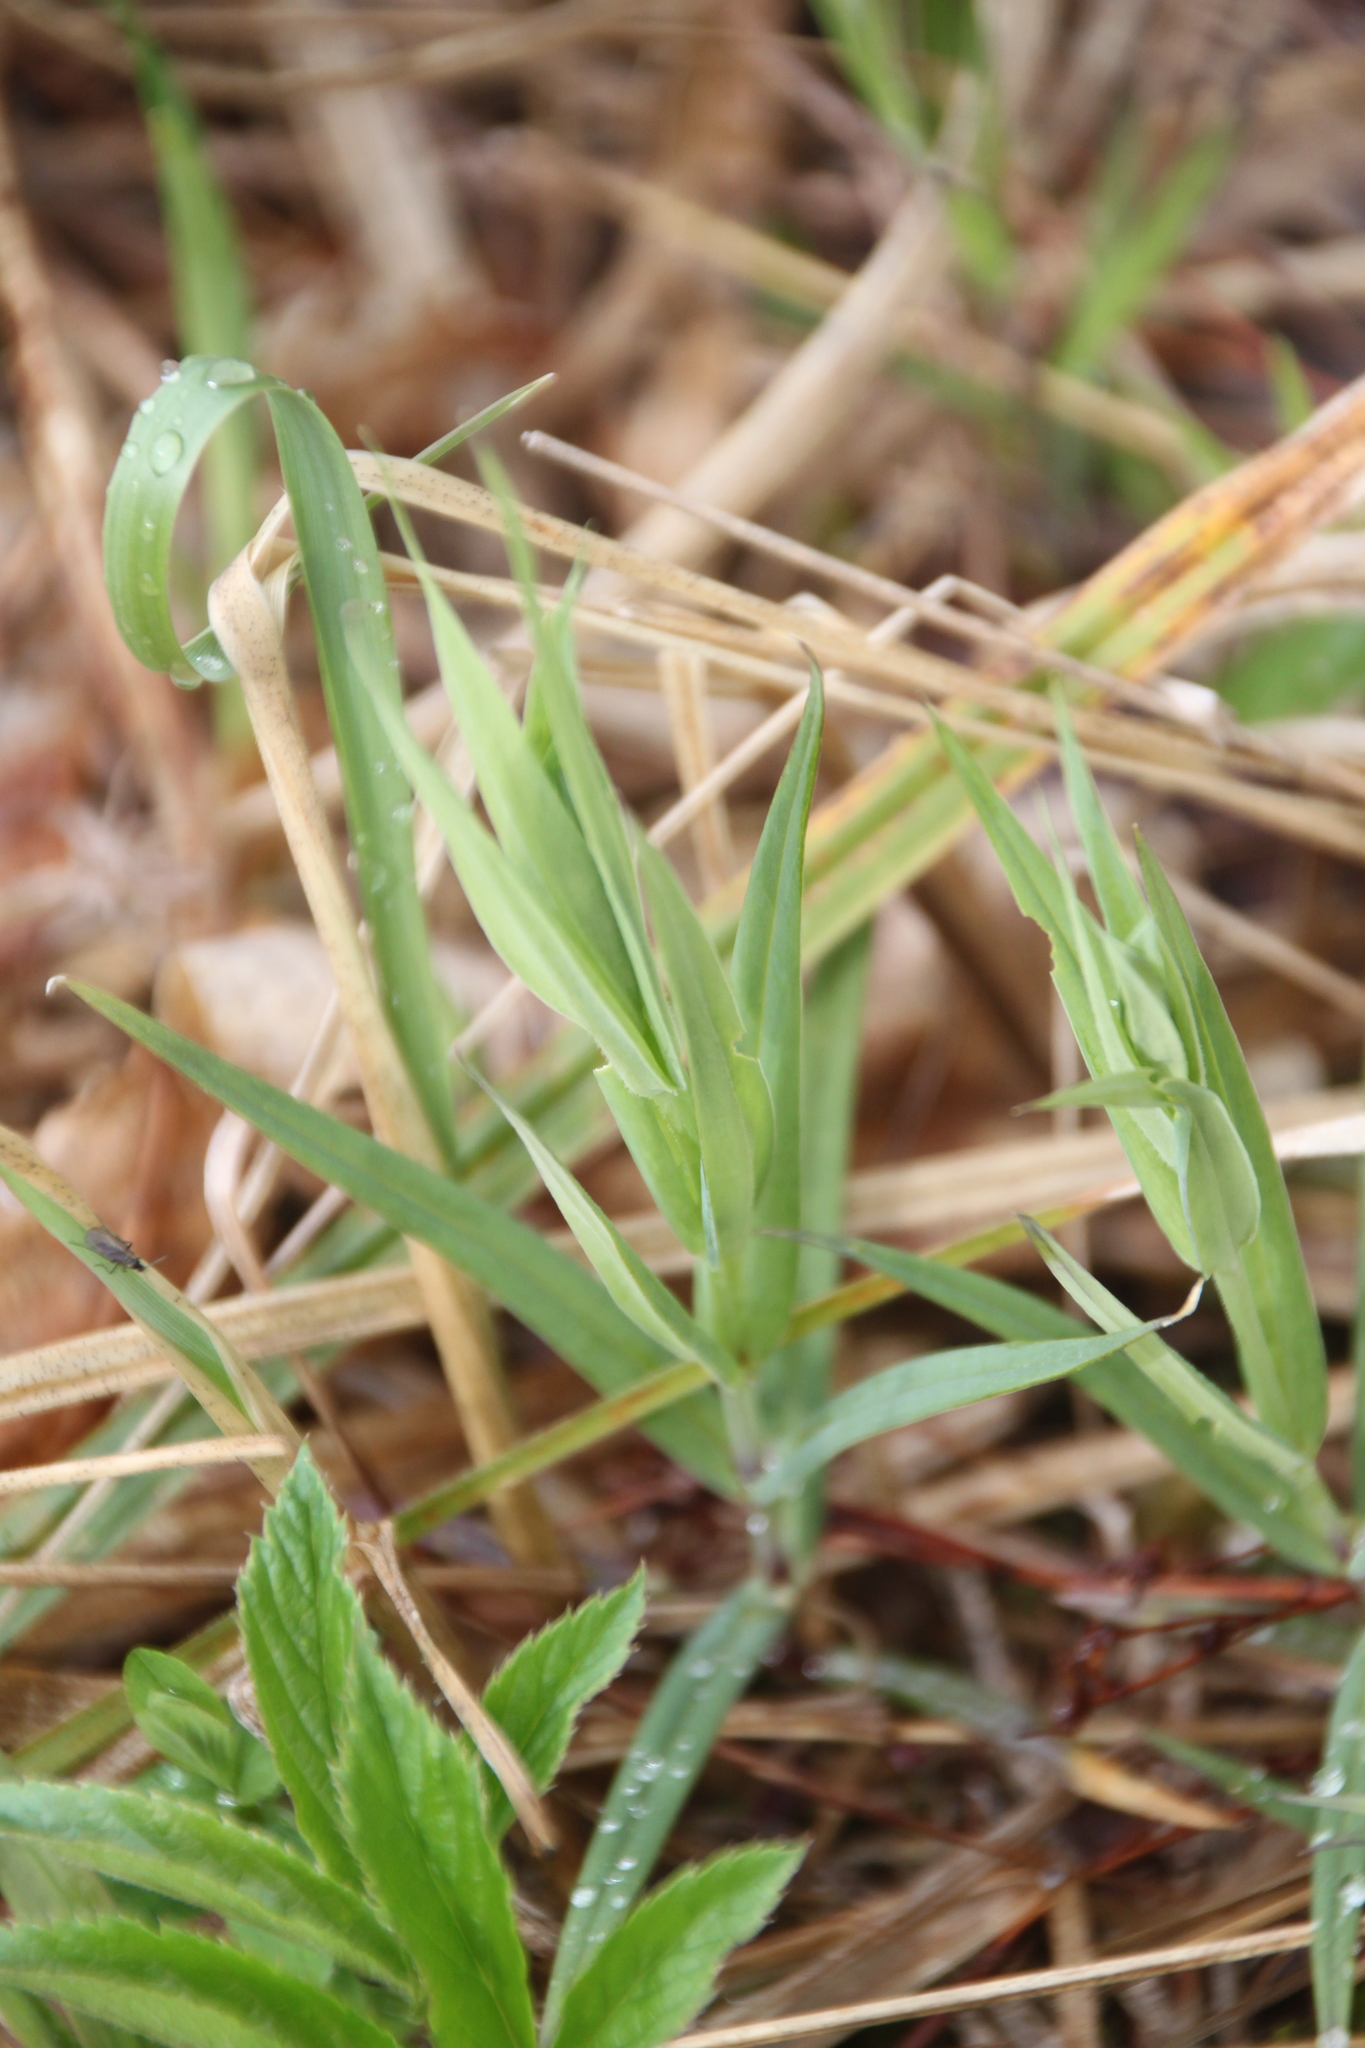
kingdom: Plantae
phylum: Tracheophyta
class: Magnoliopsida
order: Caryophyllales
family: Caryophyllaceae
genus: Rabelera
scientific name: Rabelera holostea
